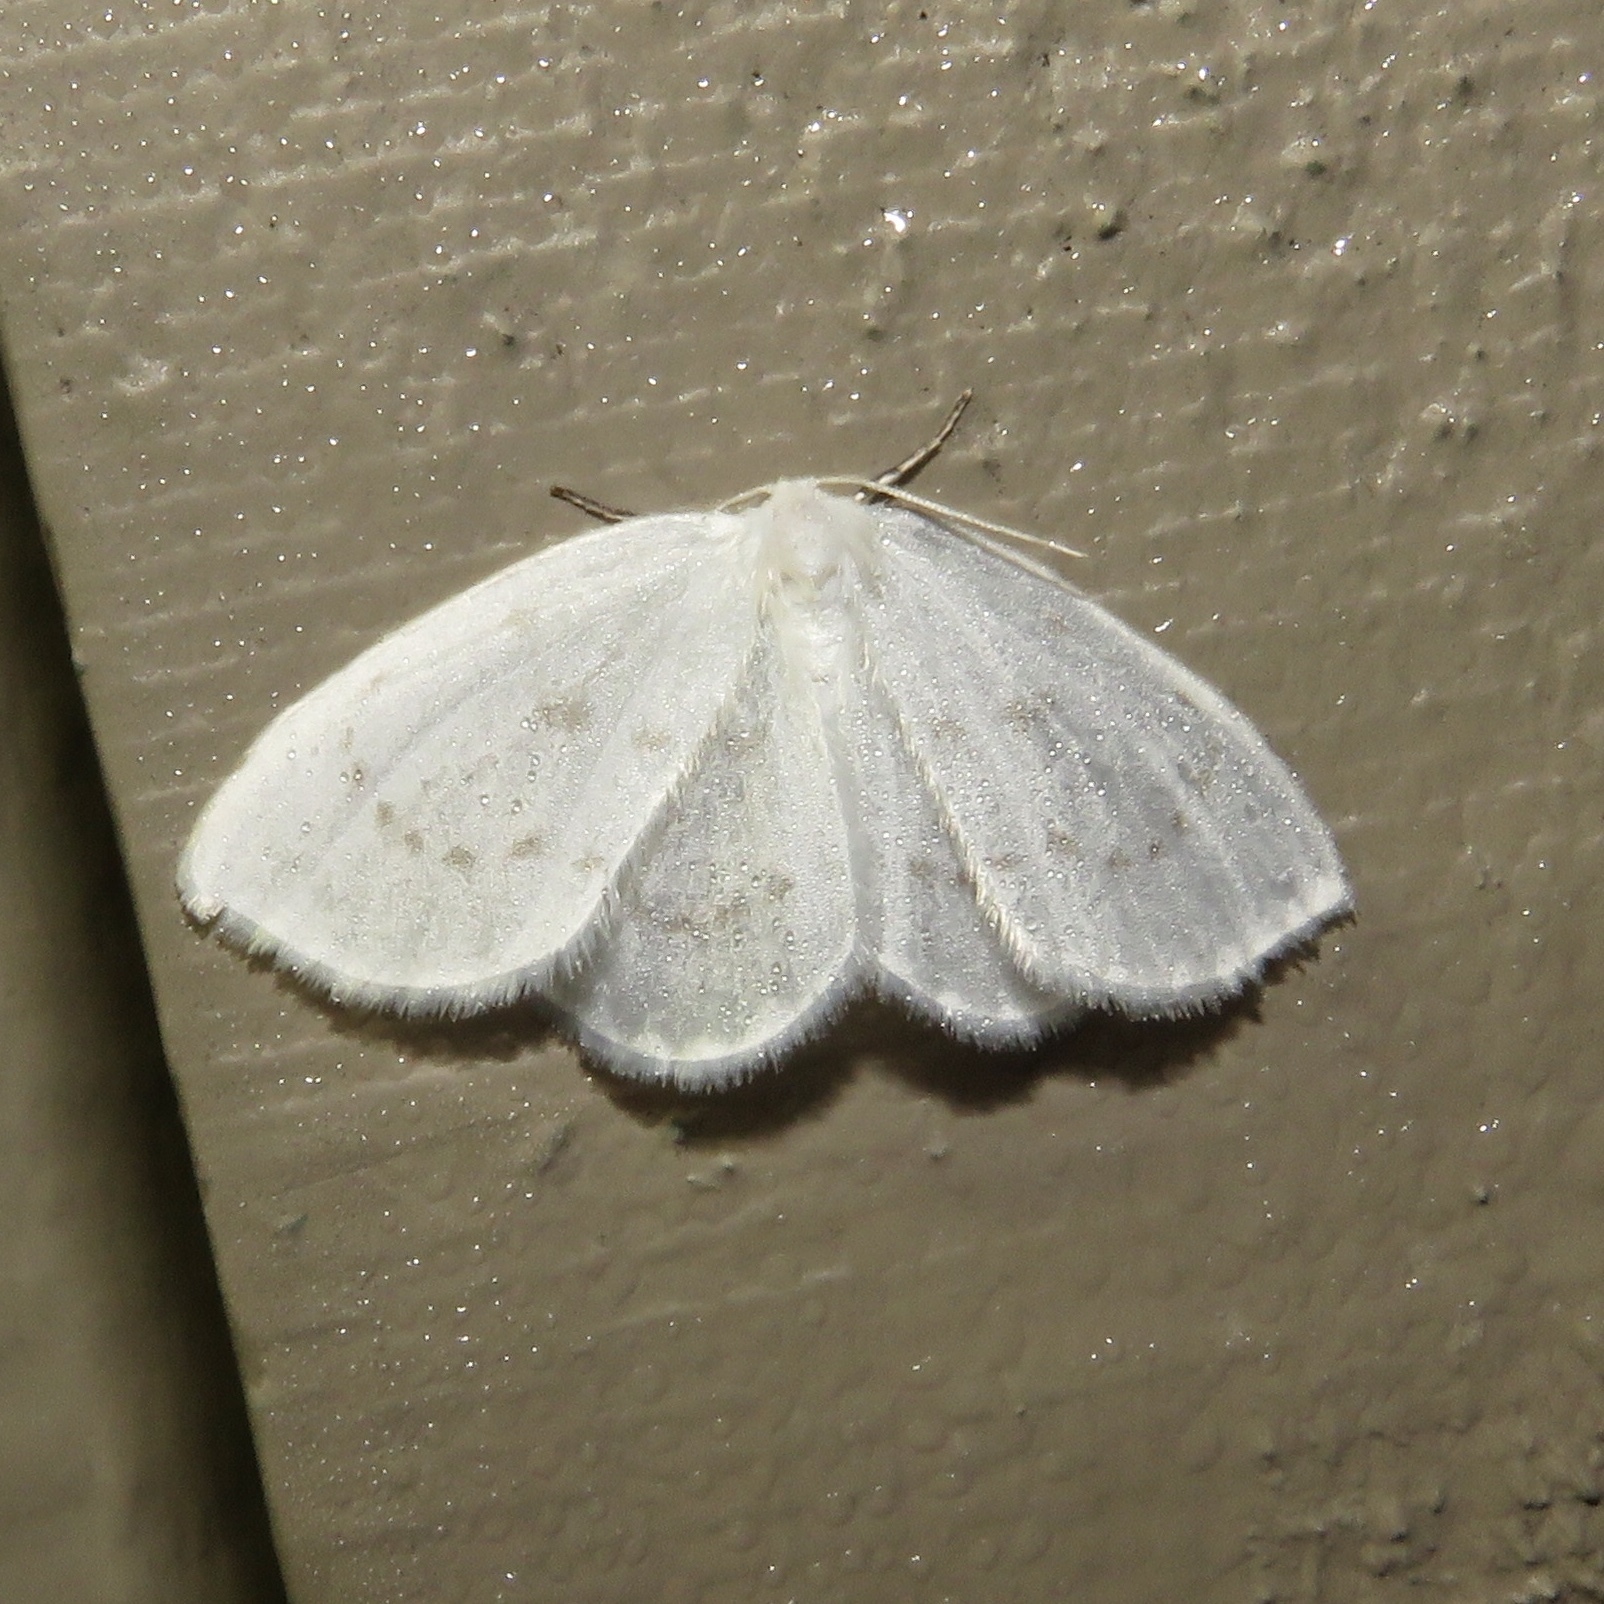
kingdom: Animalia
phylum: Arthropoda
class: Insecta
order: Lepidoptera
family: Drepanidae
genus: Eudeilinia
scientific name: Eudeilinia herminiata
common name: Northern eudeilinea moth
